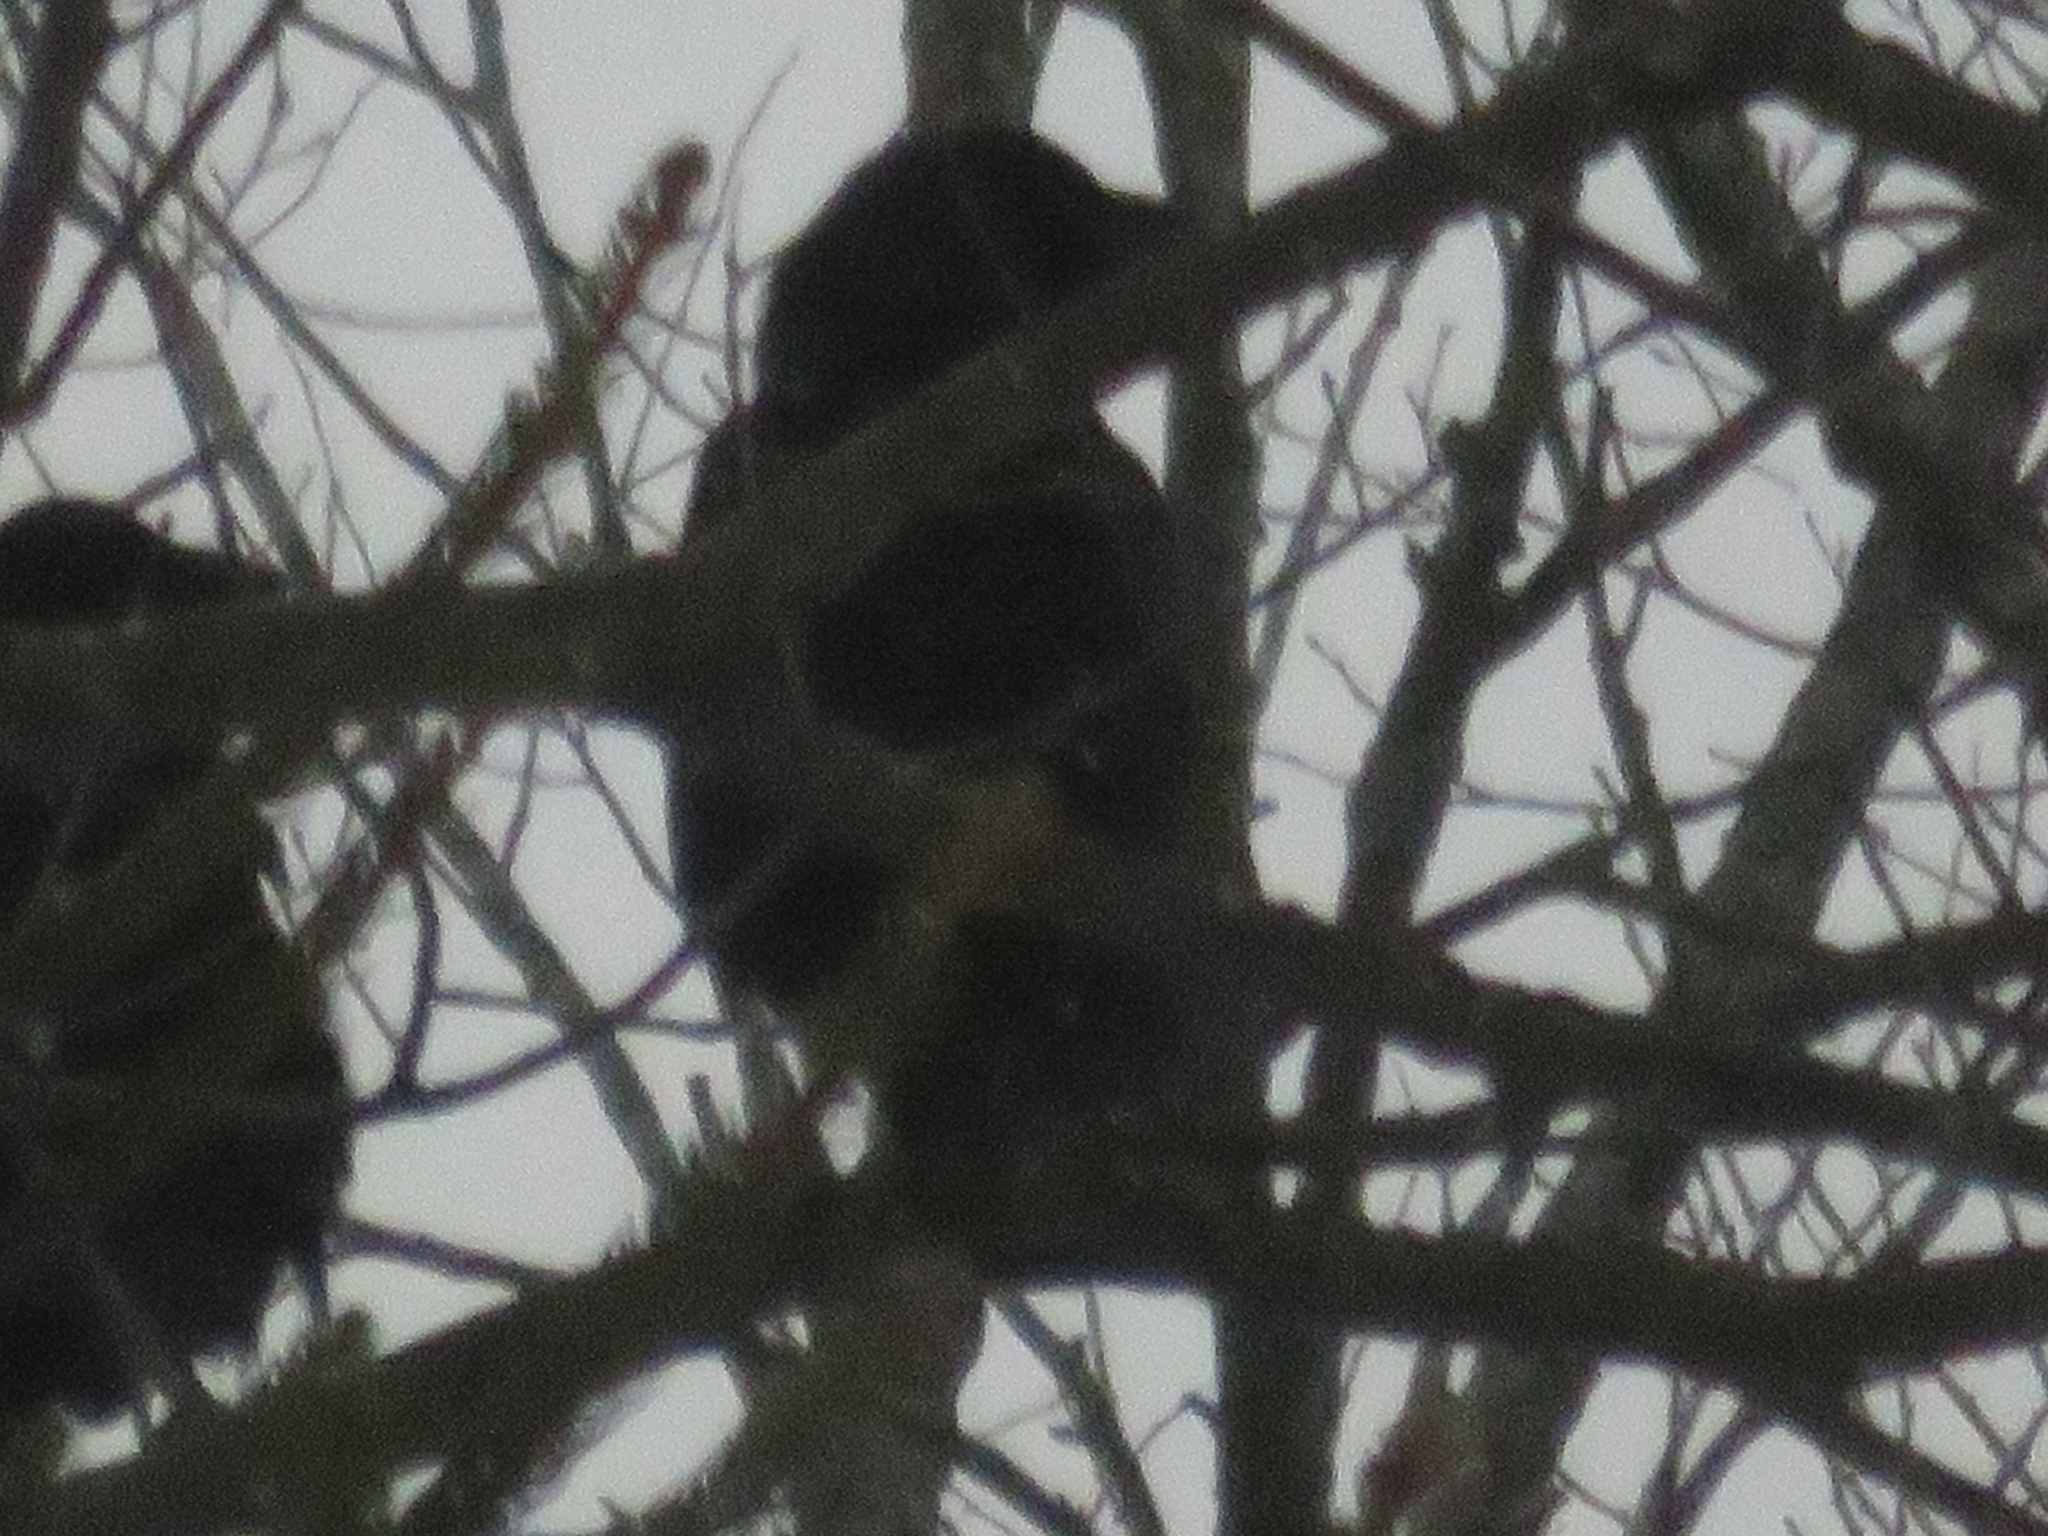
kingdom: Animalia
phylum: Chordata
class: Aves
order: Passeriformes
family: Corvidae
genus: Corvus
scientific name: Corvus brachyrhynchos
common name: American crow
